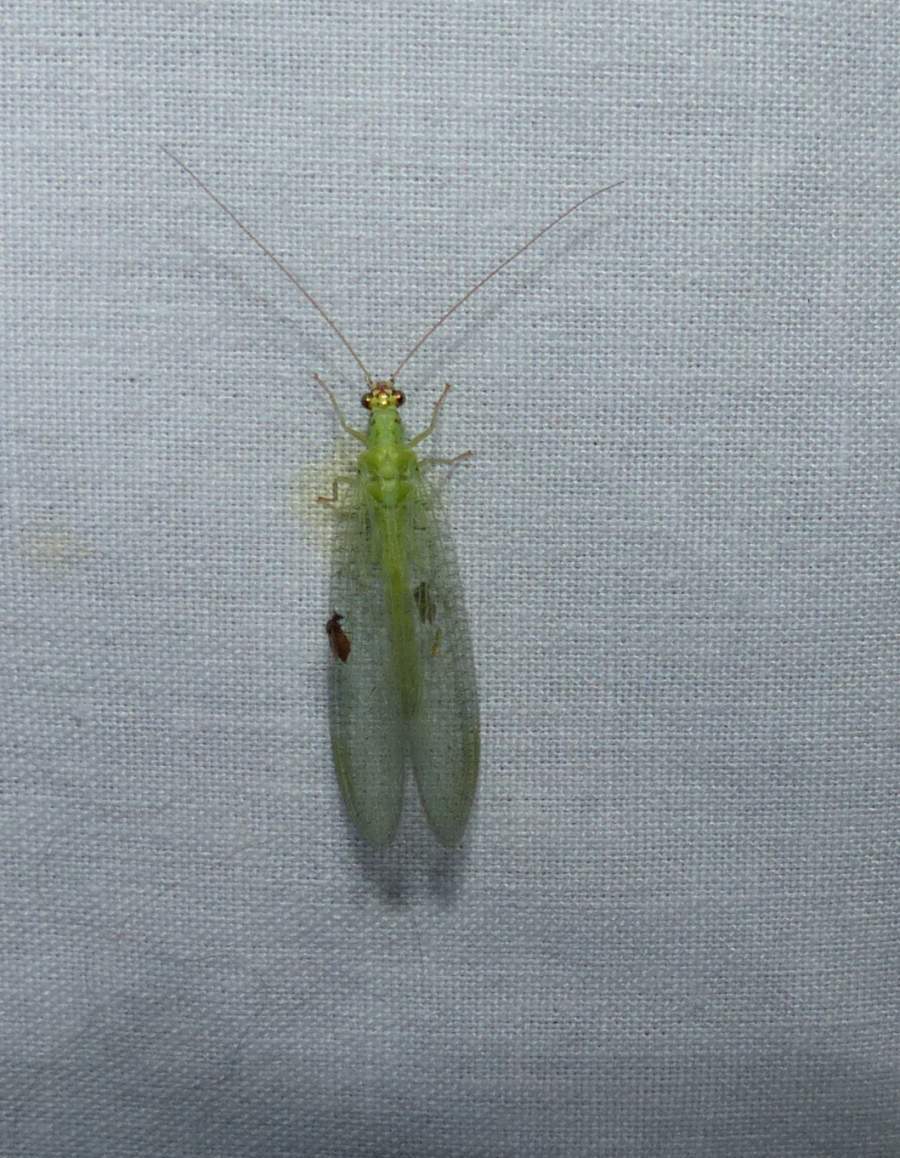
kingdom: Animalia
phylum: Arthropoda
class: Insecta
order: Neuroptera
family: Chrysopidae
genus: Chrysopa
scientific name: Chrysopa oculata
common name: Golden-eyed lacewing
